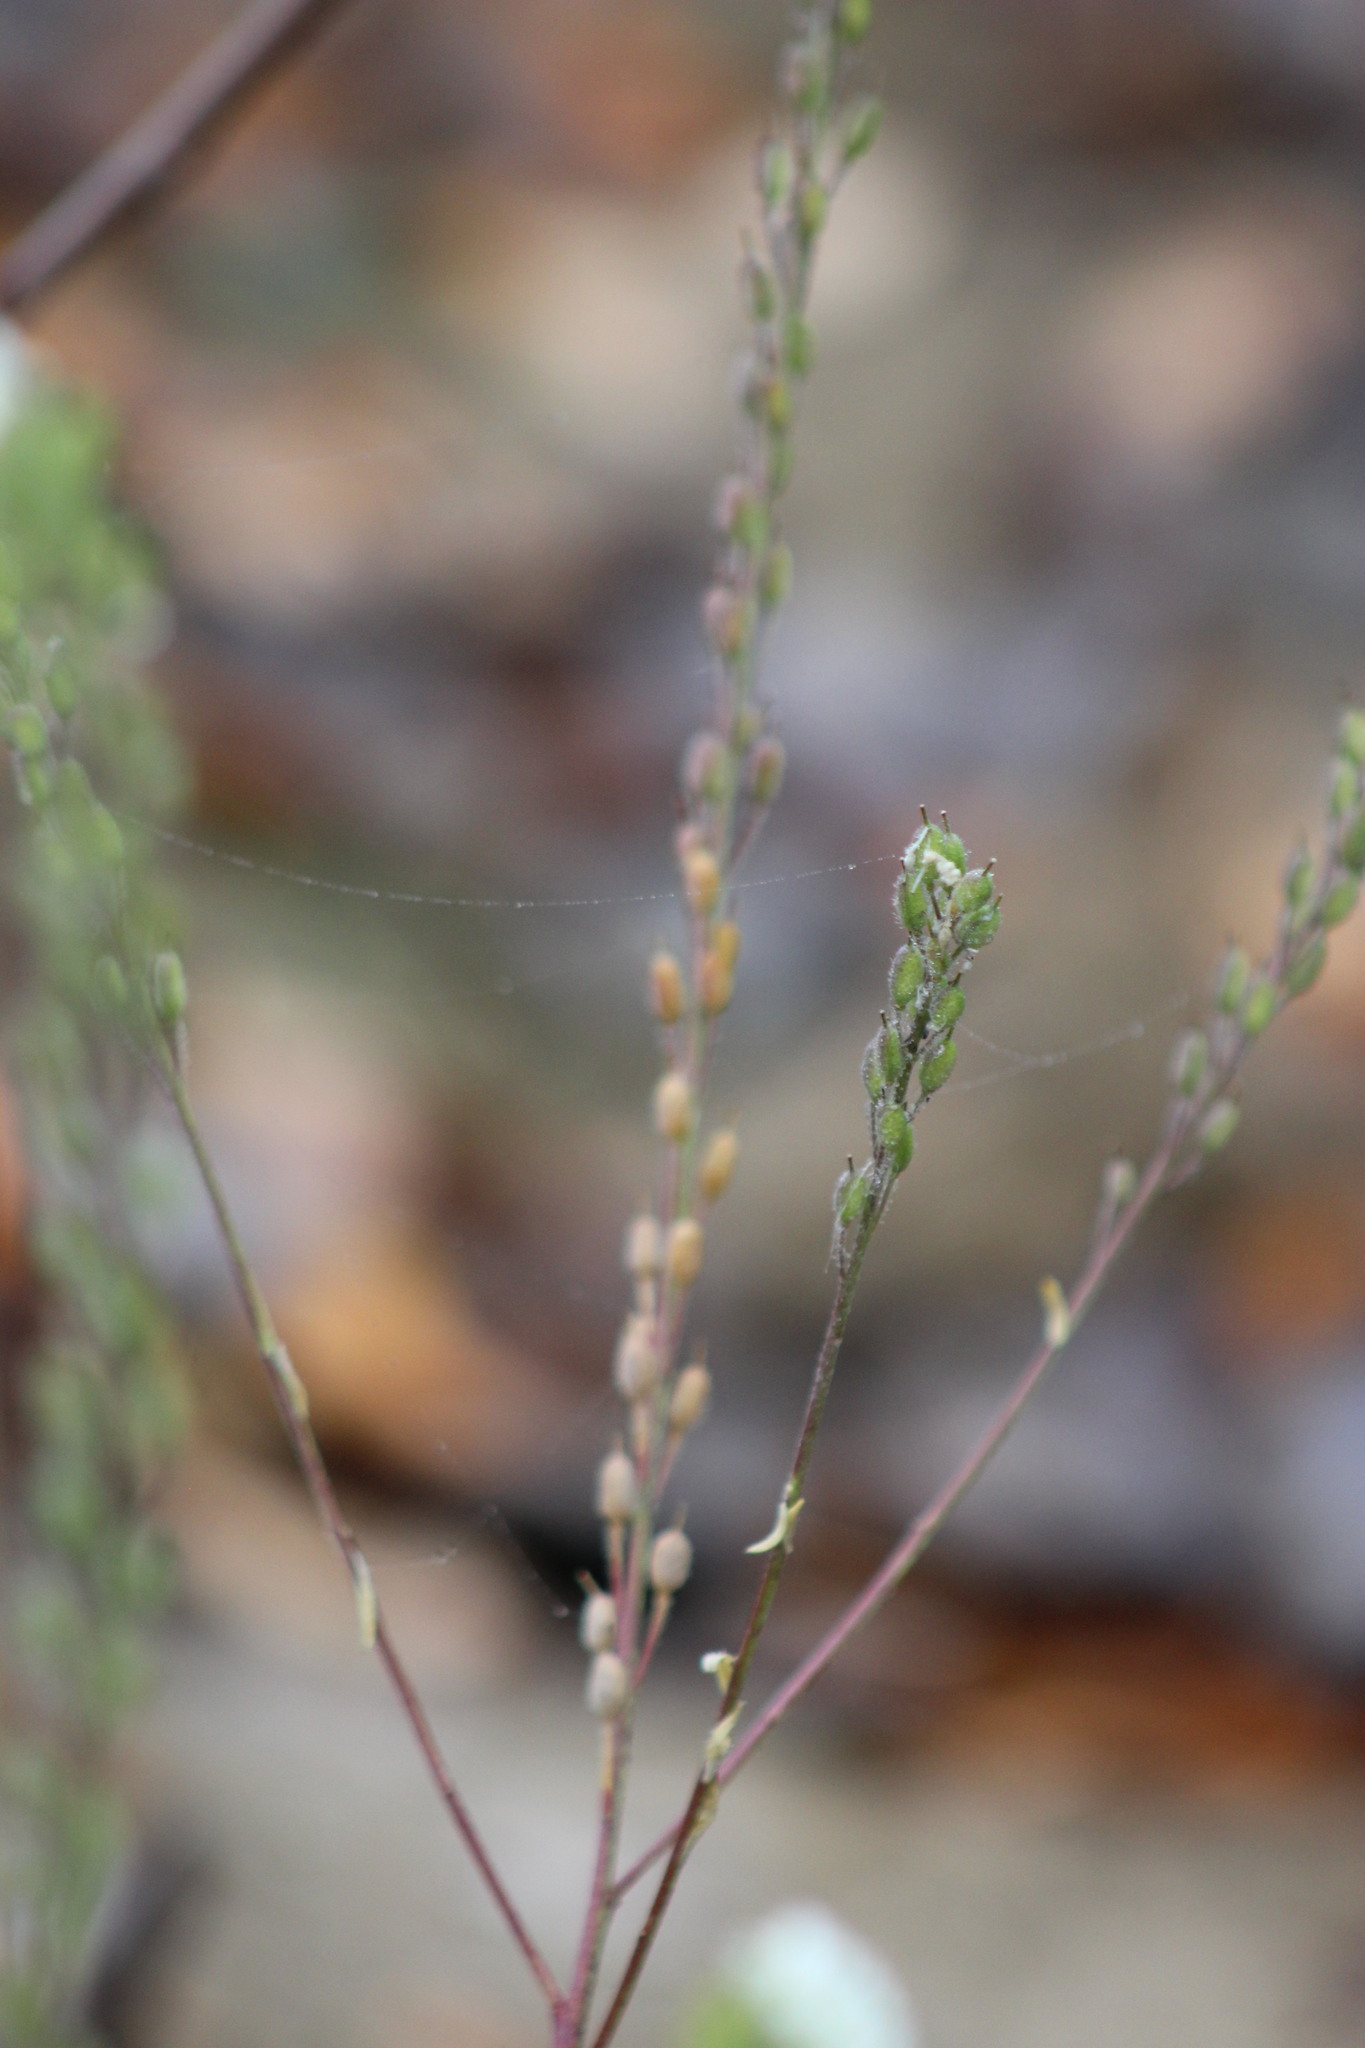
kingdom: Plantae
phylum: Tracheophyta
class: Magnoliopsida
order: Brassicales
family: Brassicaceae
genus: Berteroa
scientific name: Berteroa incana
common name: Hoary alison
